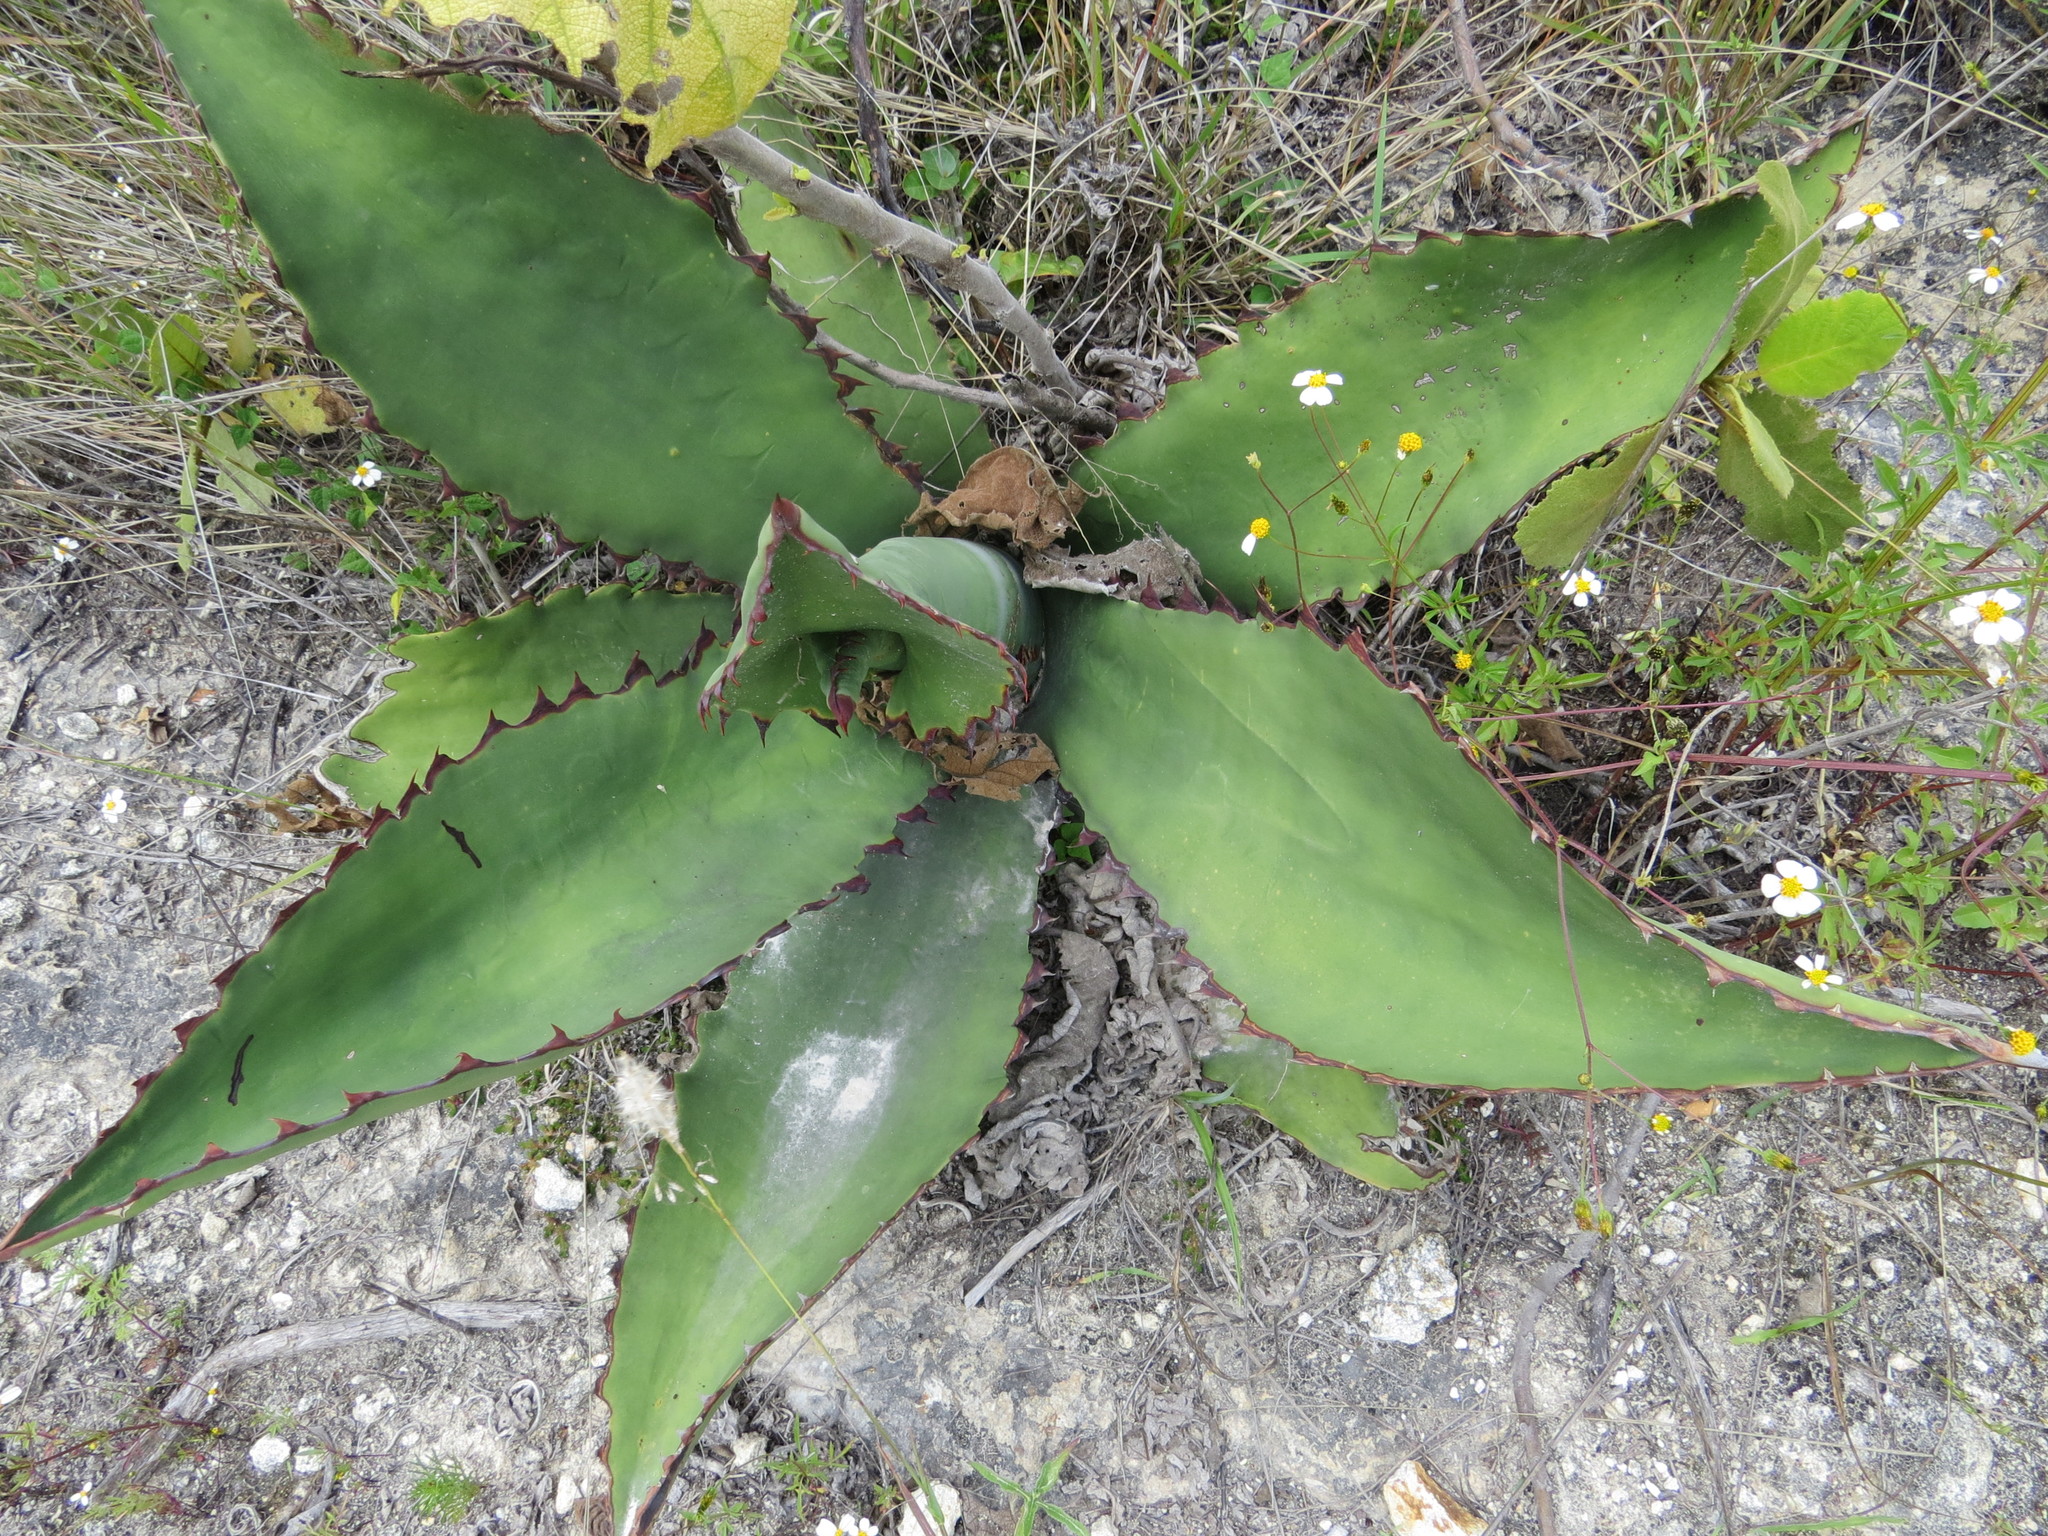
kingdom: Plantae
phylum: Tracheophyta
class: Liliopsida
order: Asparagales
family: Asparagaceae
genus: Agave
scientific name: Agave marmorata
